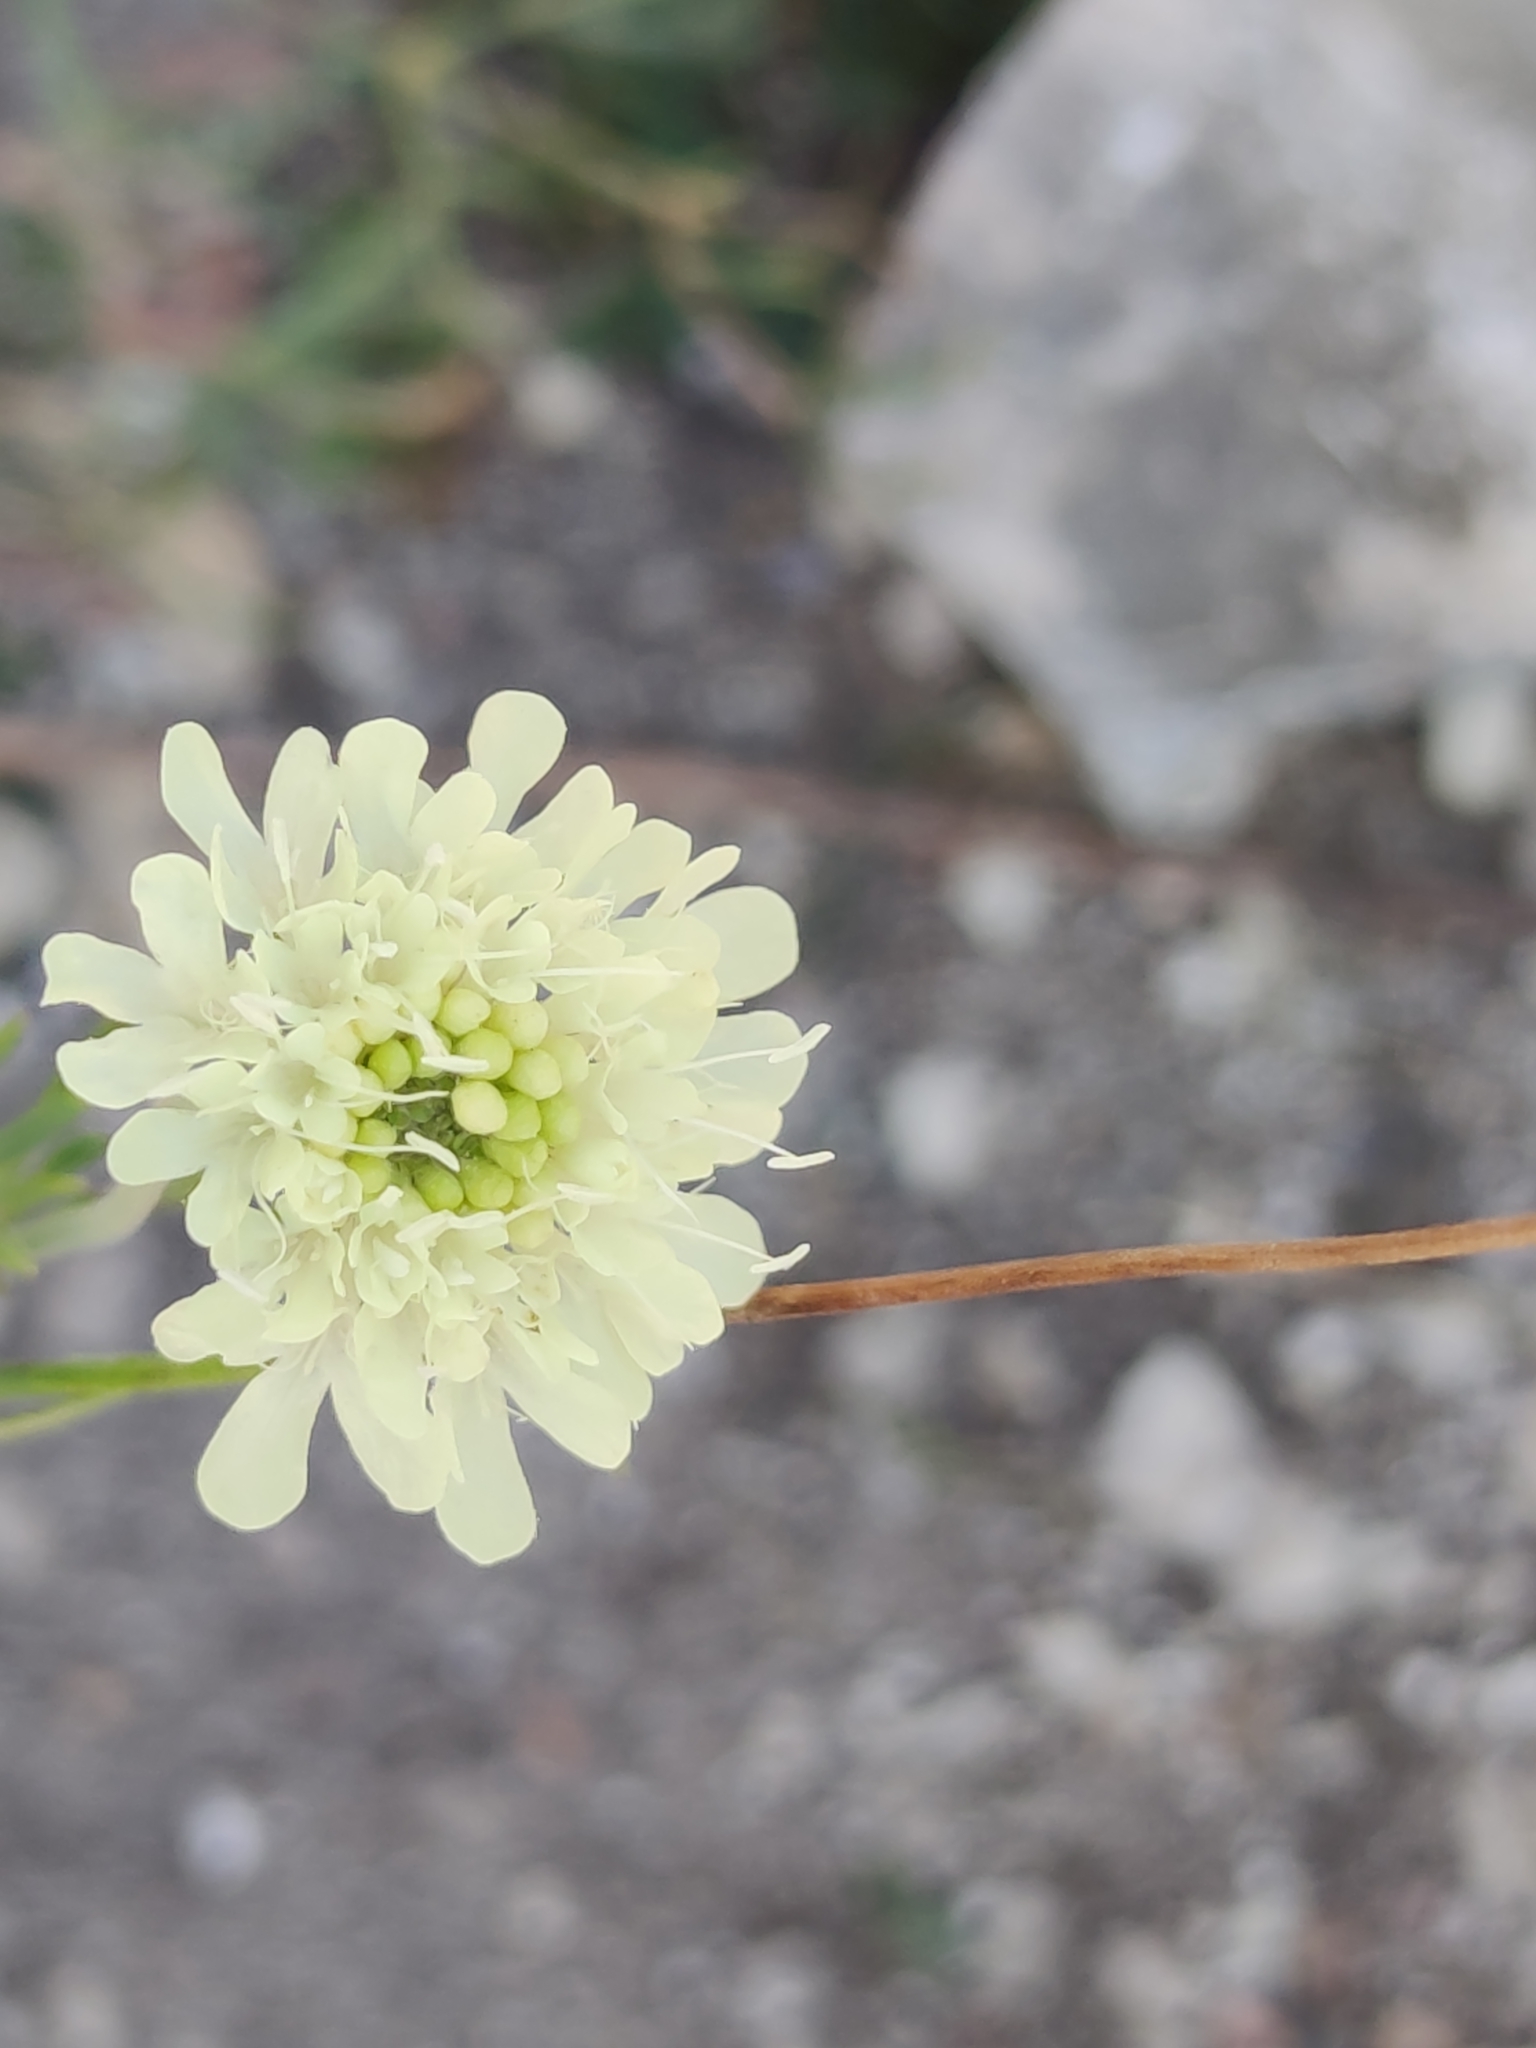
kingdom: Plantae
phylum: Tracheophyta
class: Magnoliopsida
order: Dipsacales
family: Caprifoliaceae
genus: Scabiosa
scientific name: Scabiosa ochroleuca
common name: Cream pincushions
